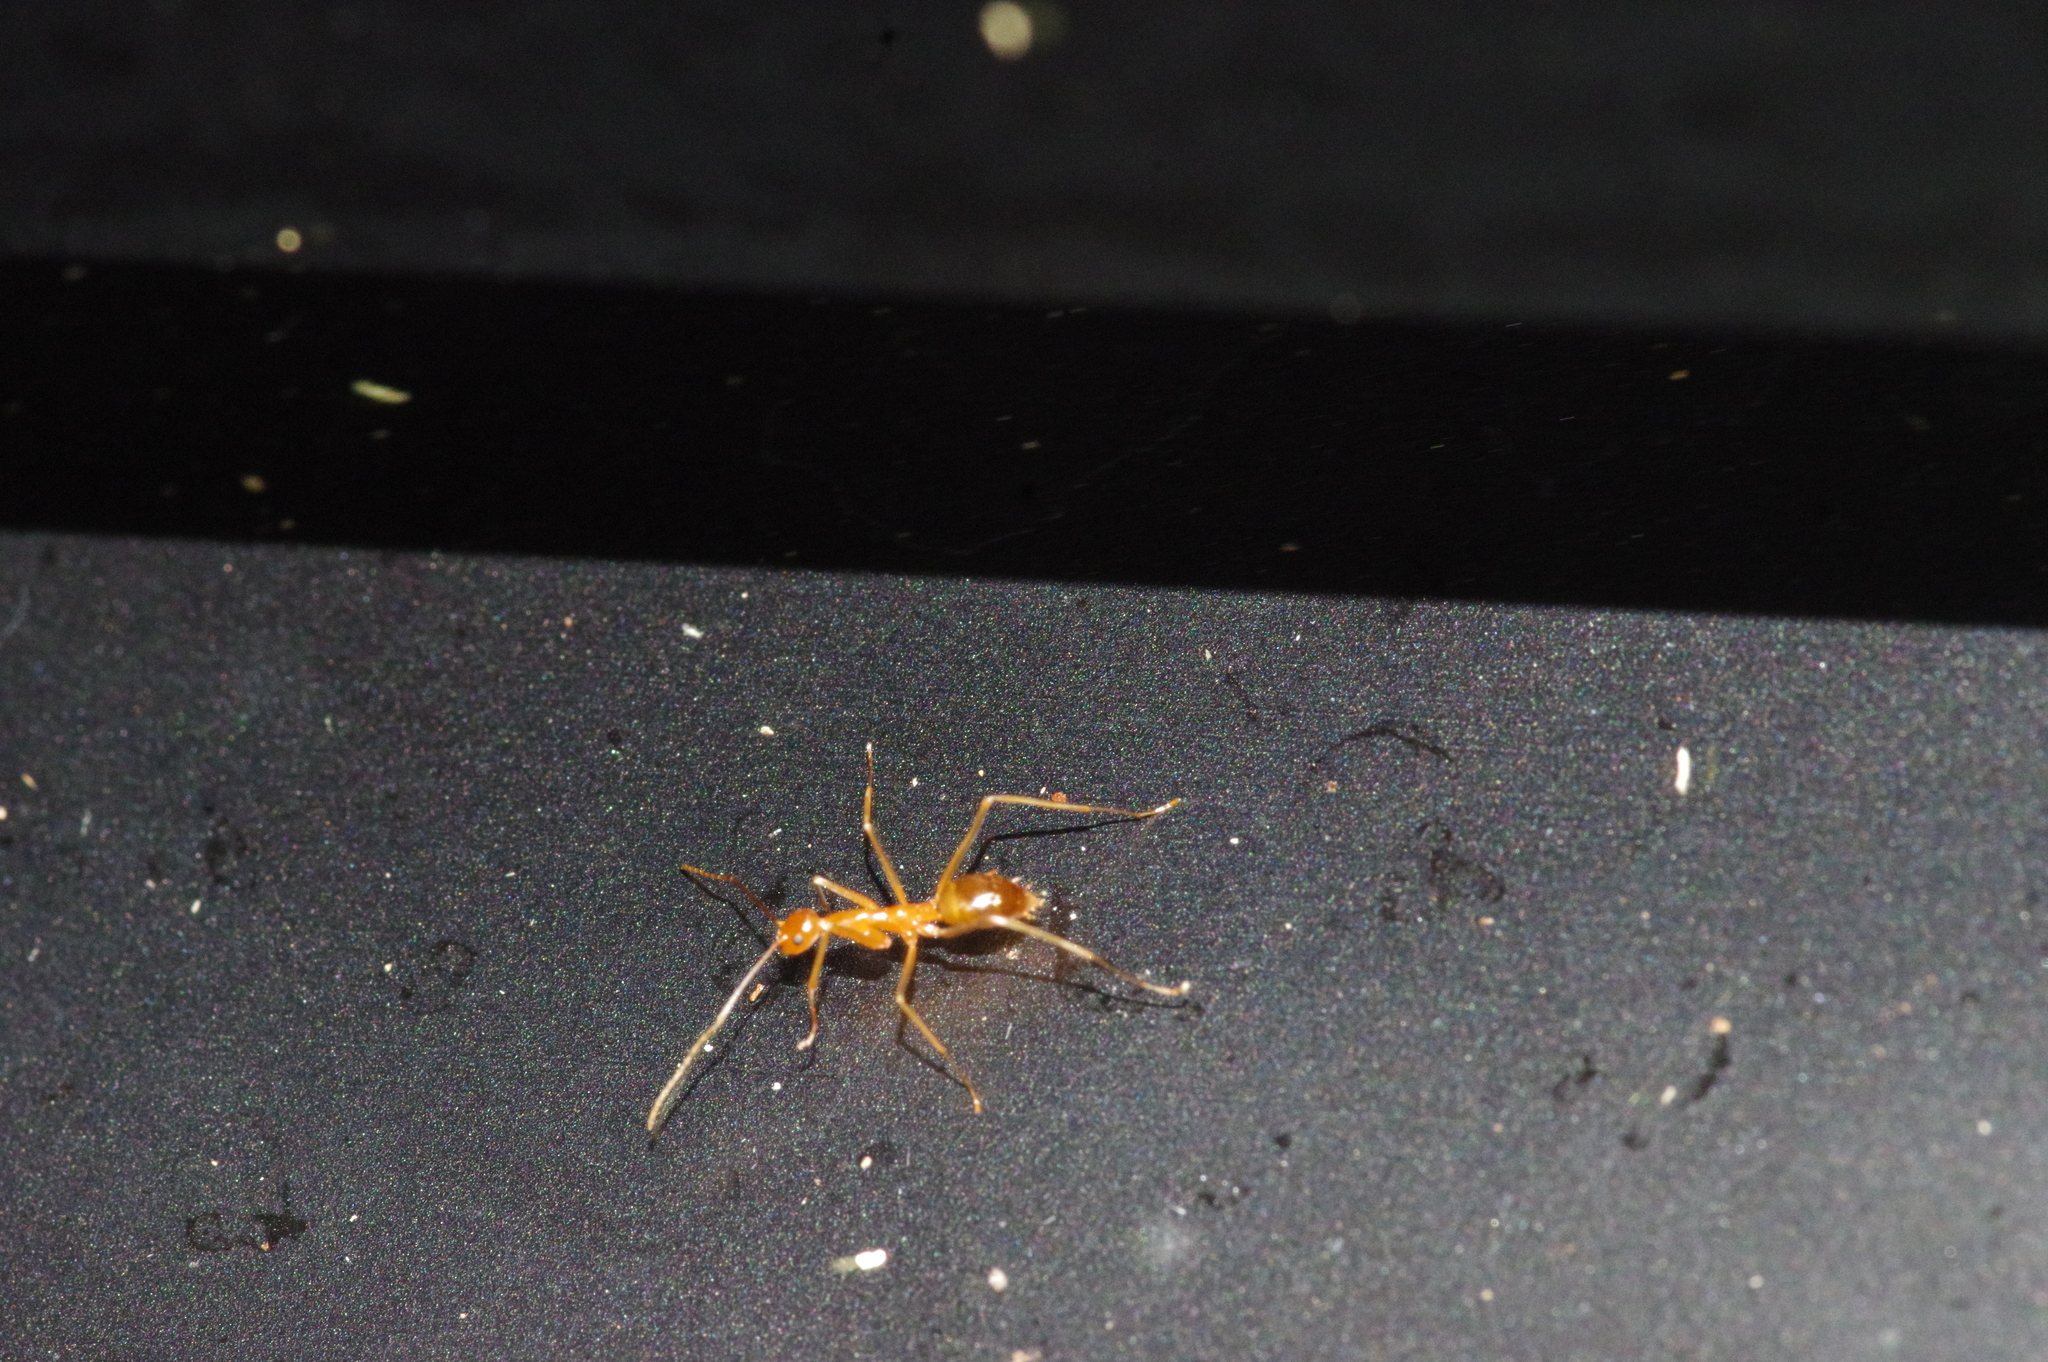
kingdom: Animalia
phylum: Arthropoda
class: Insecta
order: Hymenoptera
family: Formicidae
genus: Anoplolepis
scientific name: Anoplolepis gracilipes
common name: Ant
